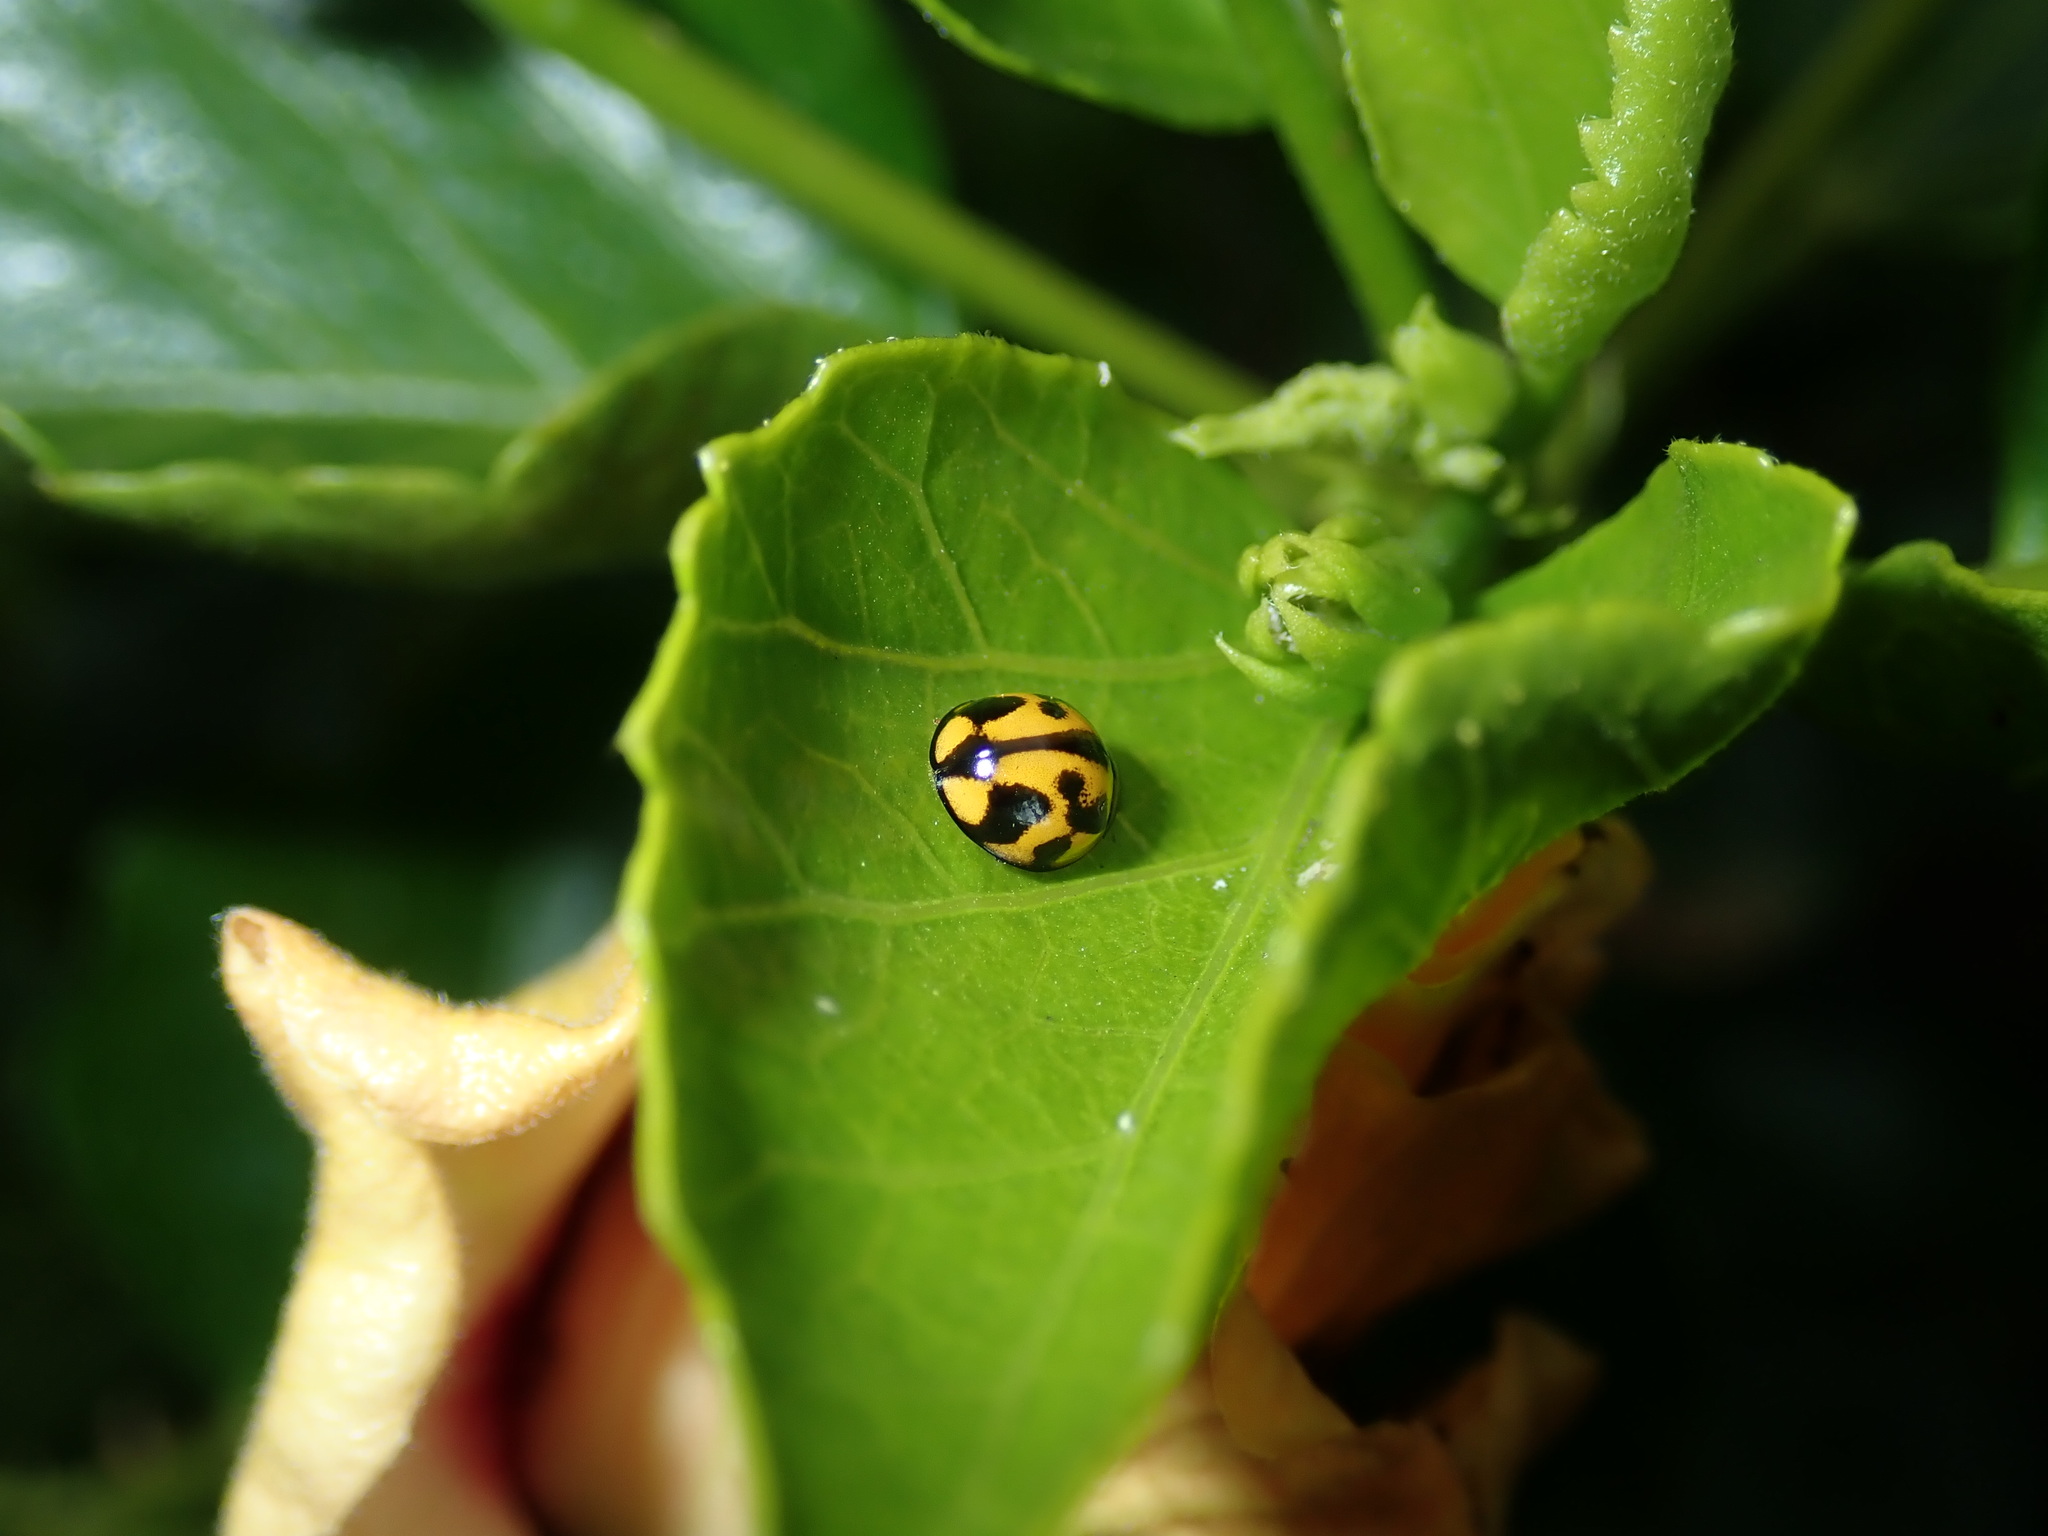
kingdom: Animalia
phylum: Arthropoda
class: Insecta
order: Coleoptera
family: Coccinellidae
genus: Coelophora
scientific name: Coelophora inaequalis
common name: Common australian lady beetle
